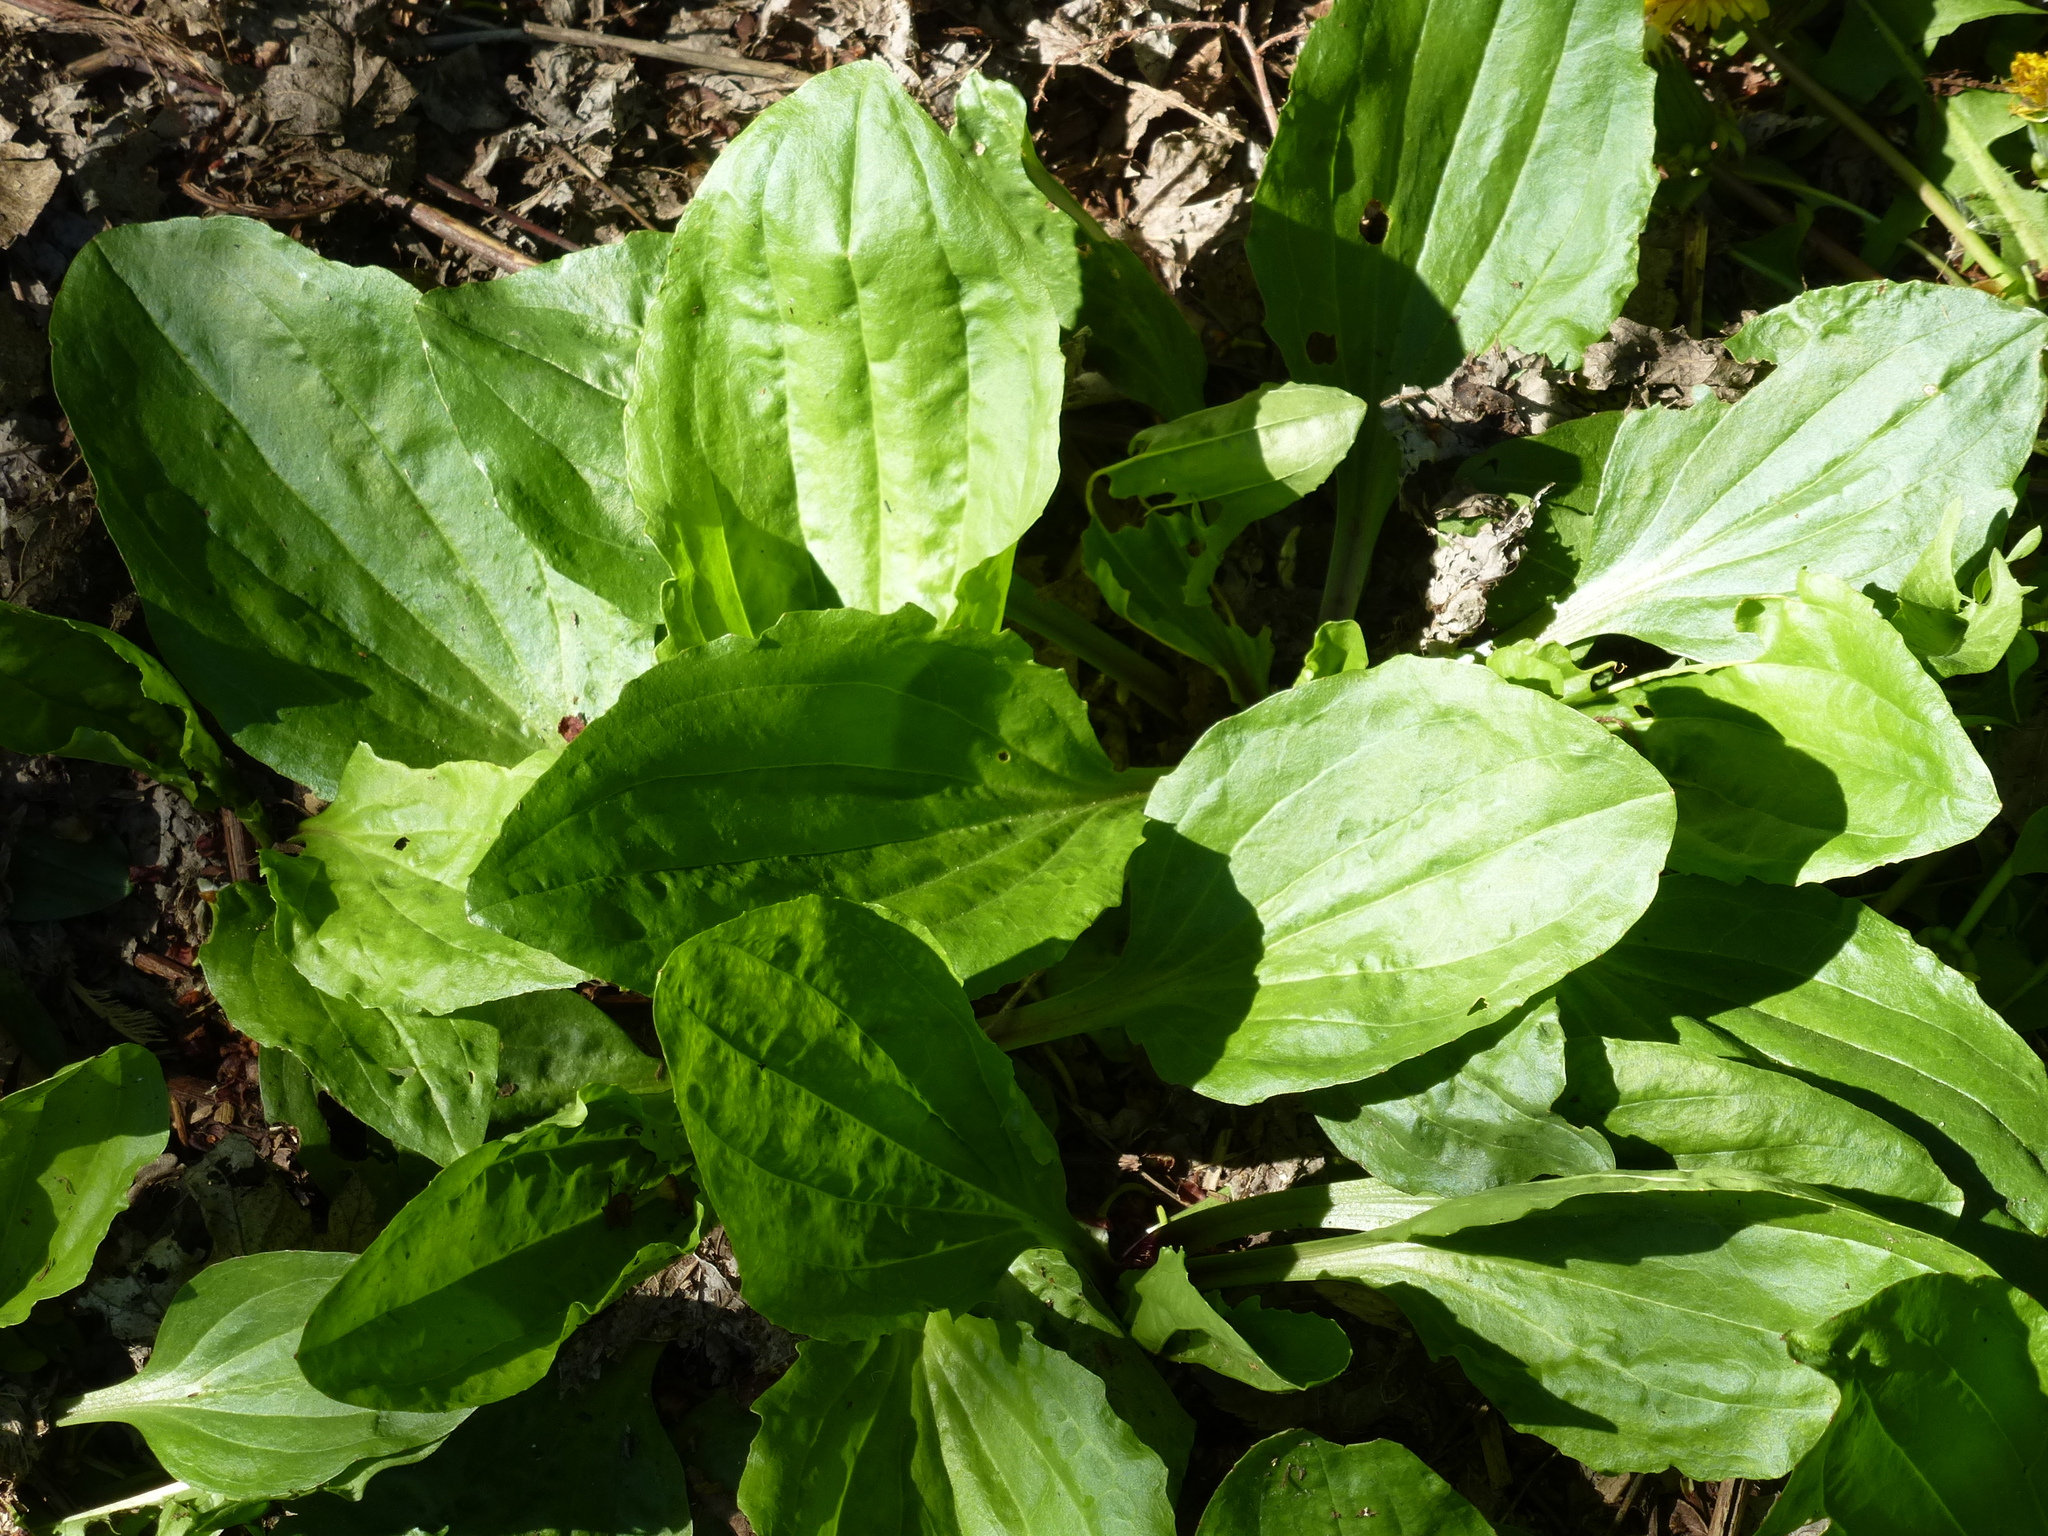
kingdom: Plantae
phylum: Tracheophyta
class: Magnoliopsida
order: Lamiales
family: Plantaginaceae
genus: Plantago
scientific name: Plantago rugelii
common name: American plantain
